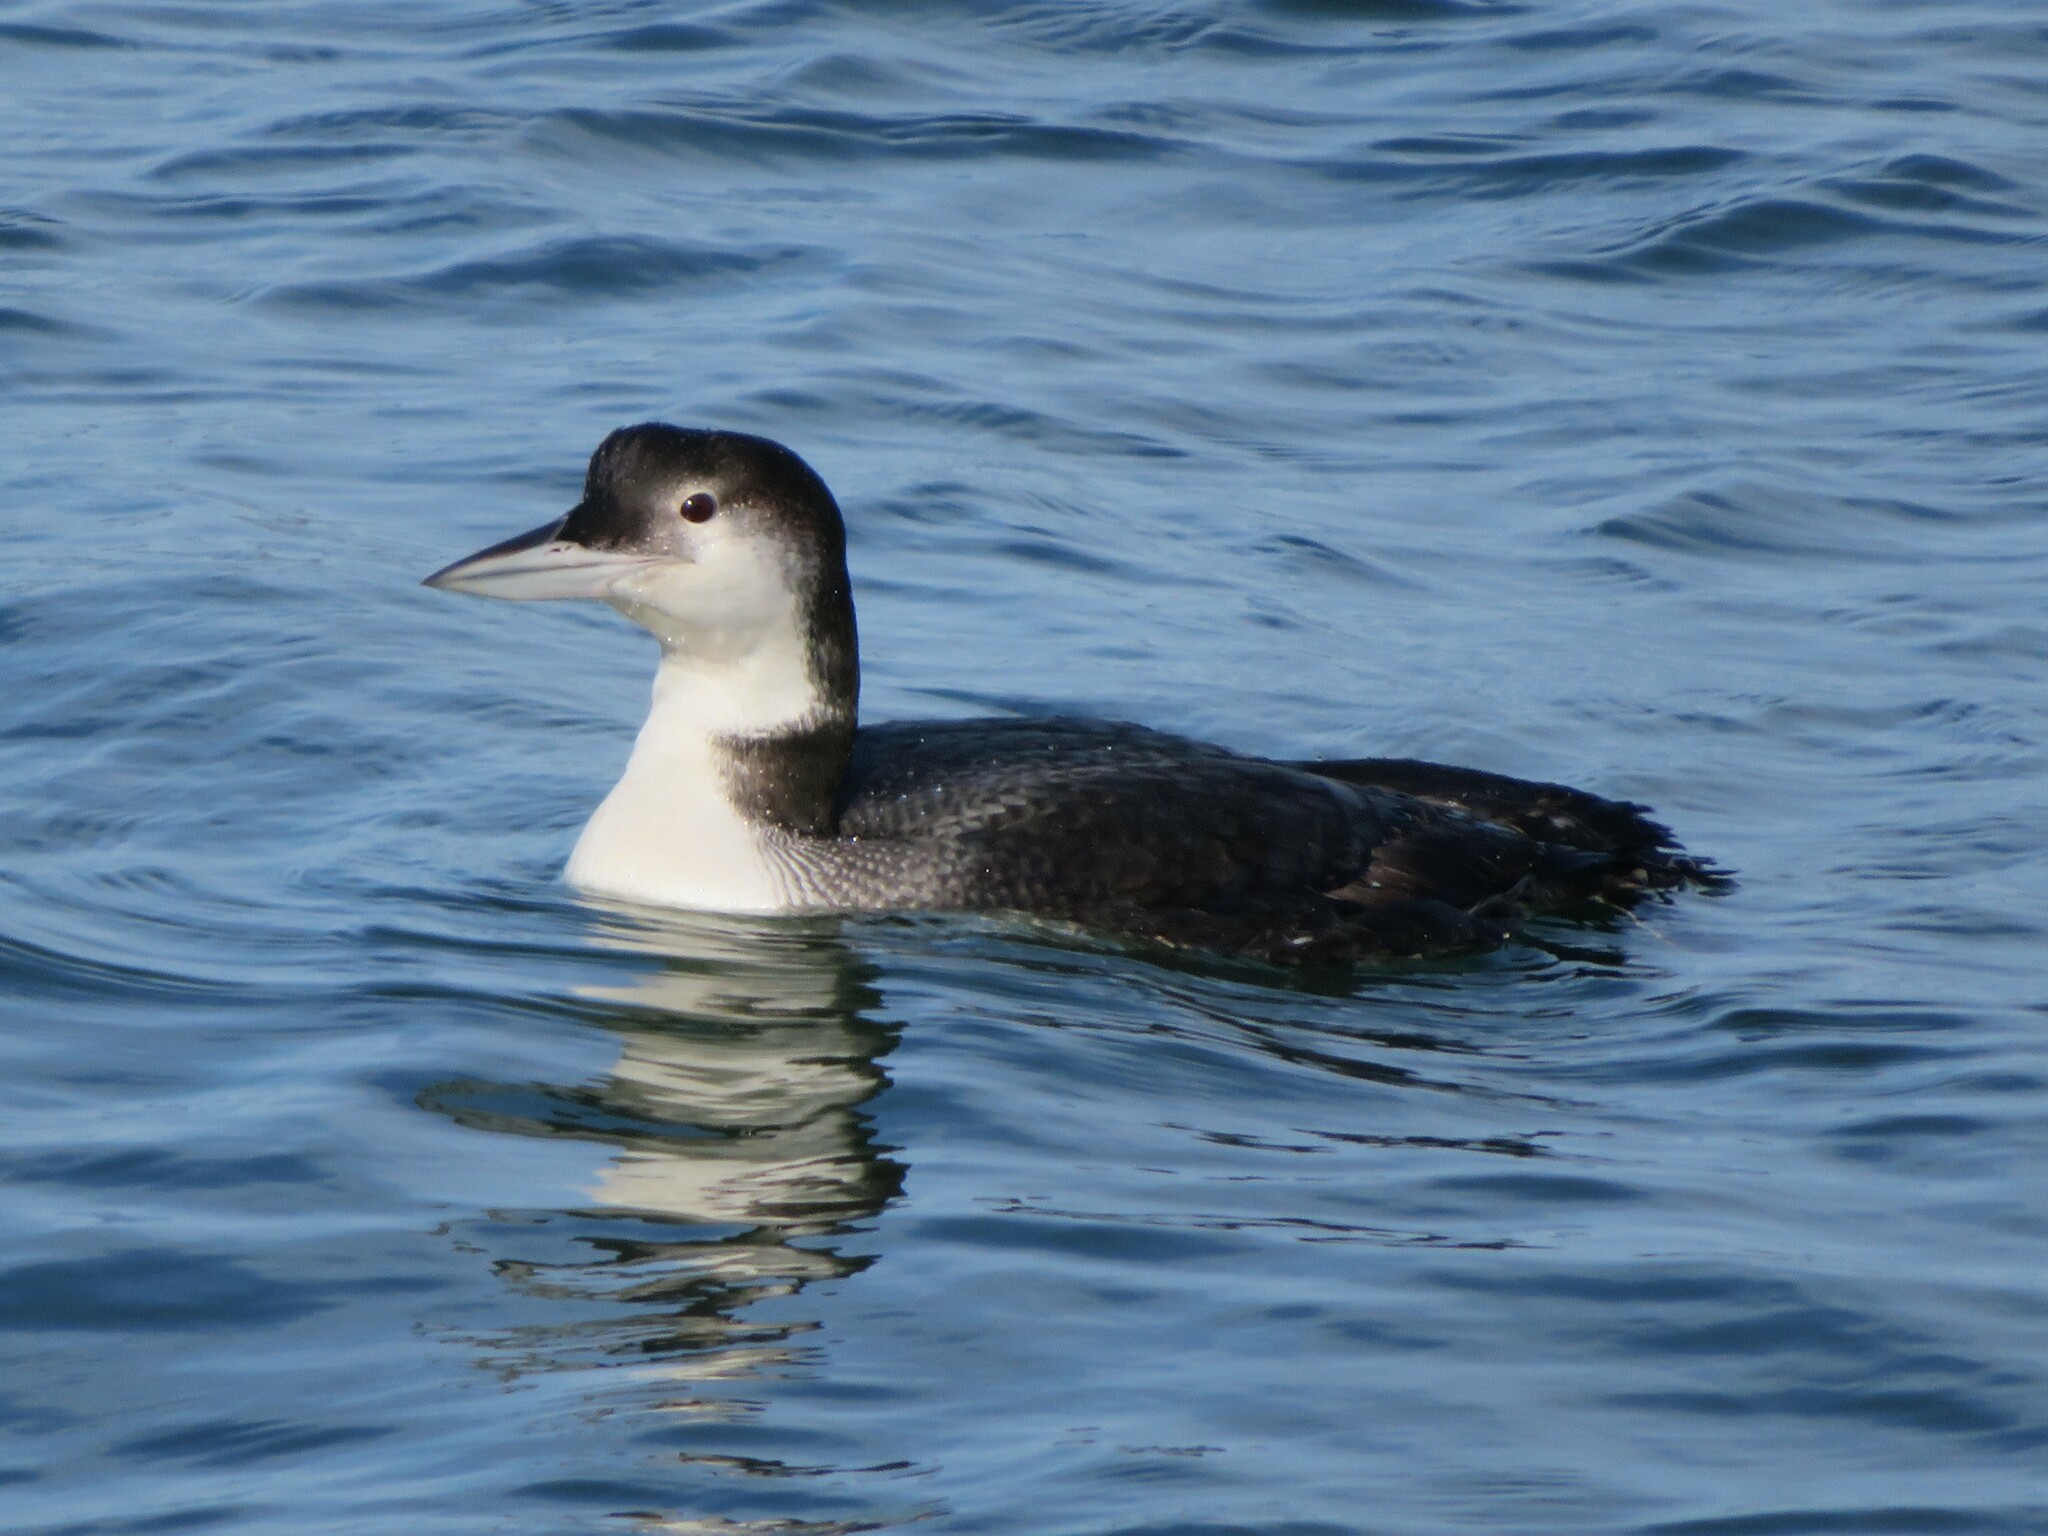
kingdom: Animalia
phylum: Chordata
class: Aves
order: Gaviiformes
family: Gaviidae
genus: Gavia
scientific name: Gavia immer
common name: Common loon
